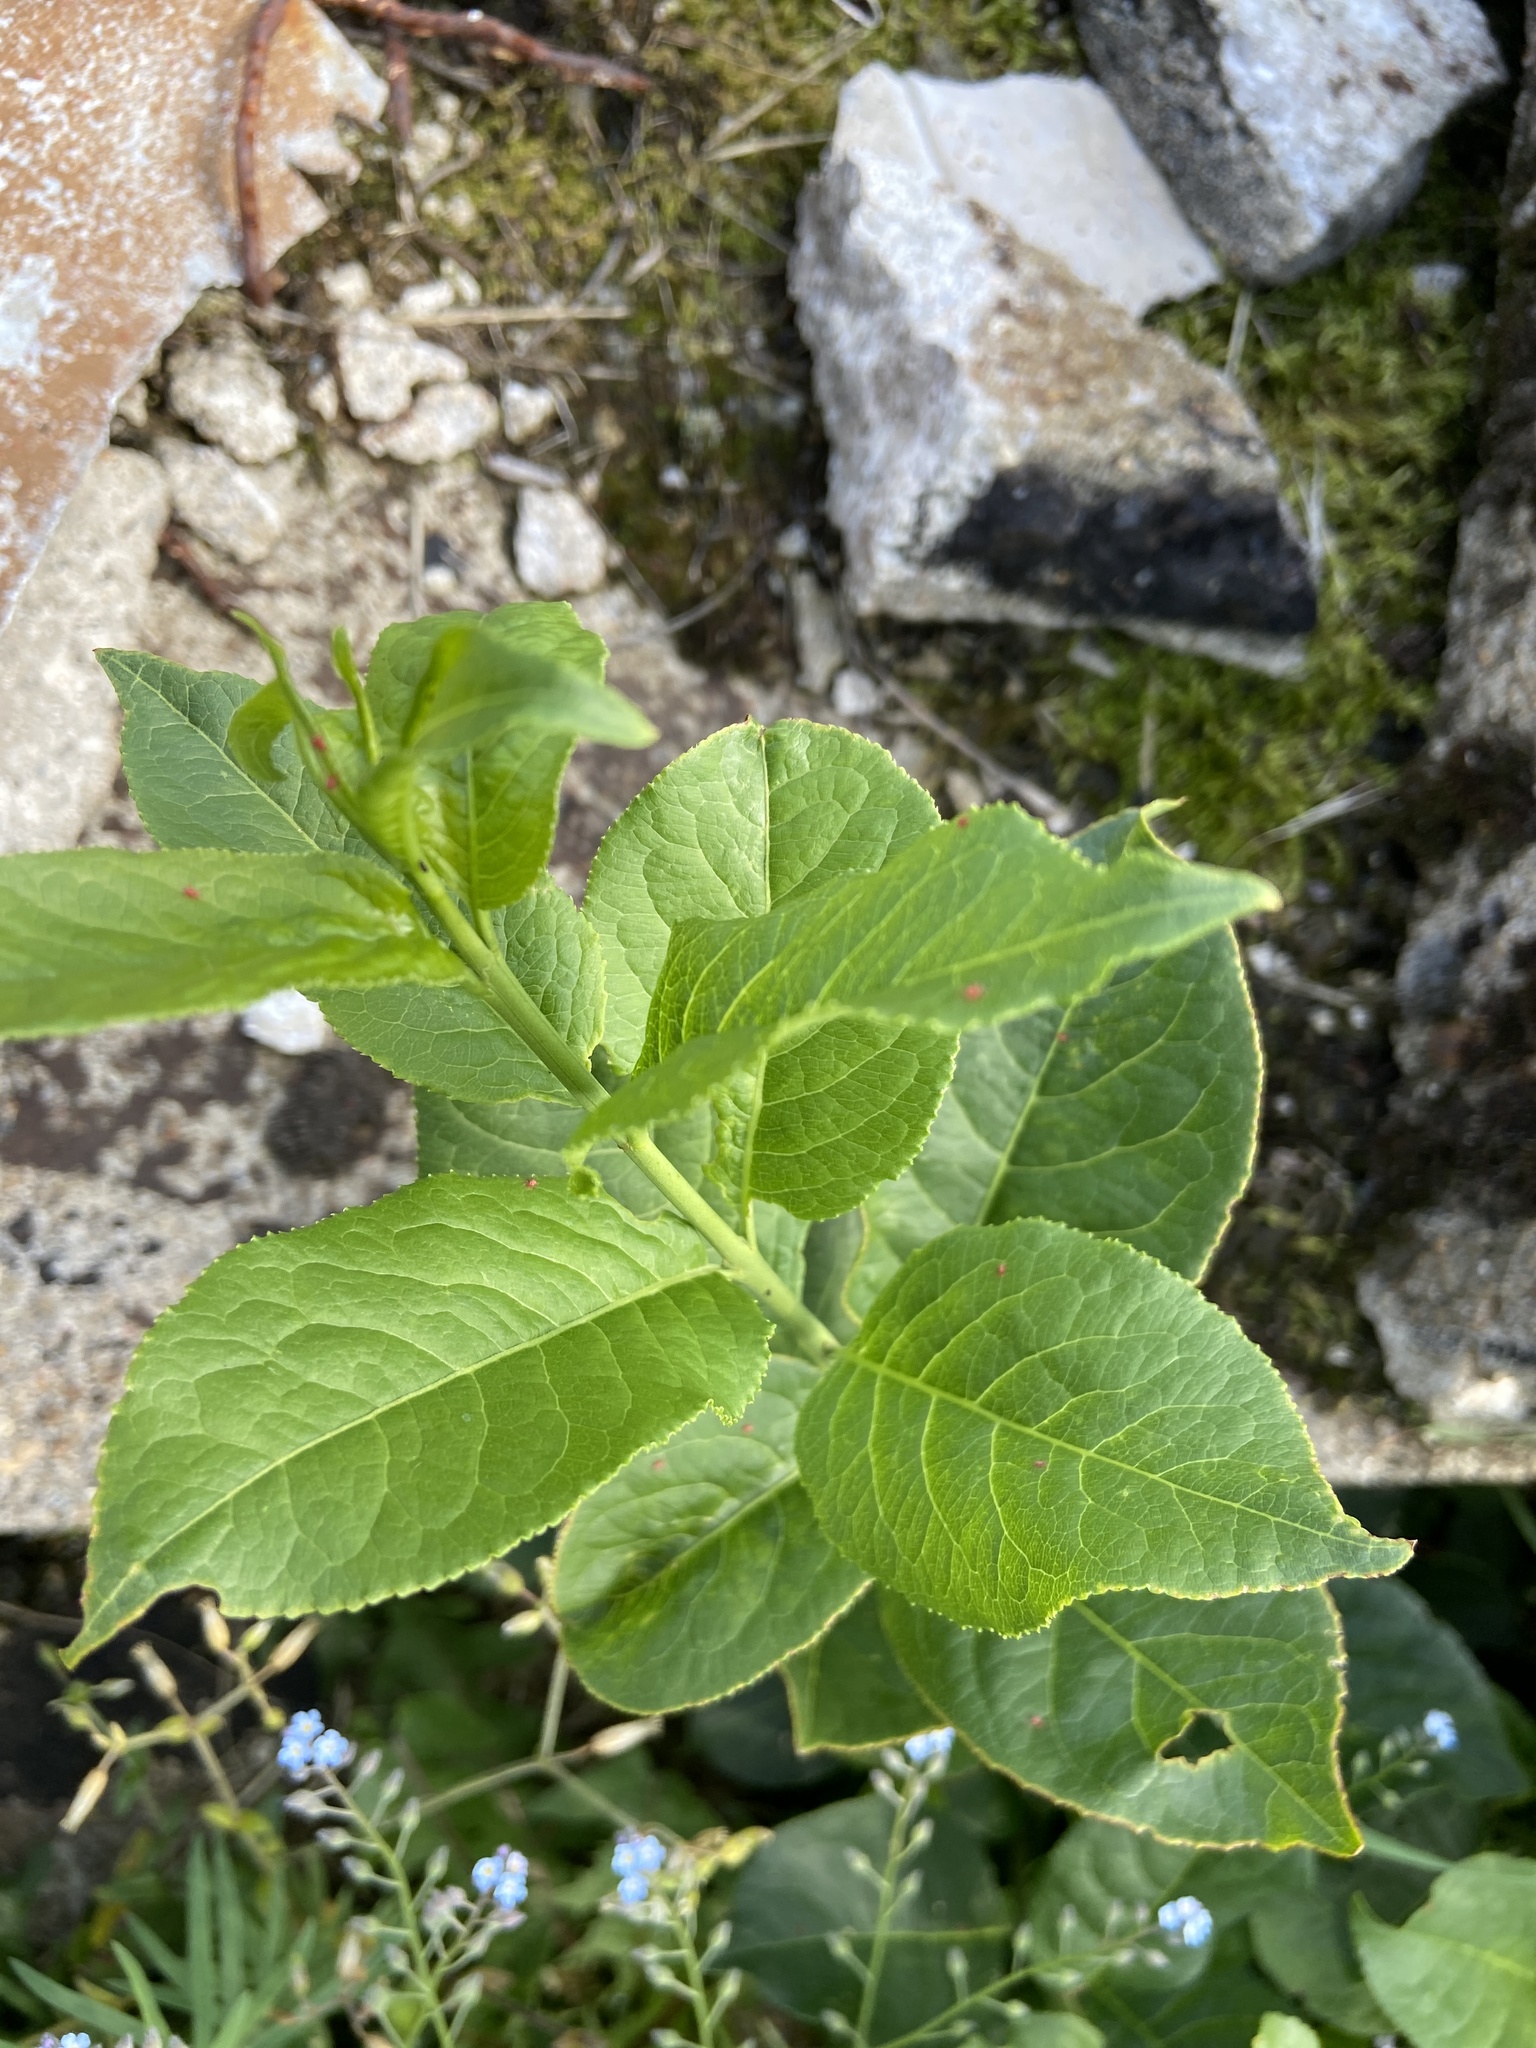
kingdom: Plantae
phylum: Tracheophyta
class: Magnoliopsida
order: Celastrales
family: Celastraceae
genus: Euonymus
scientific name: Euonymus europaeus
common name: Spindle
